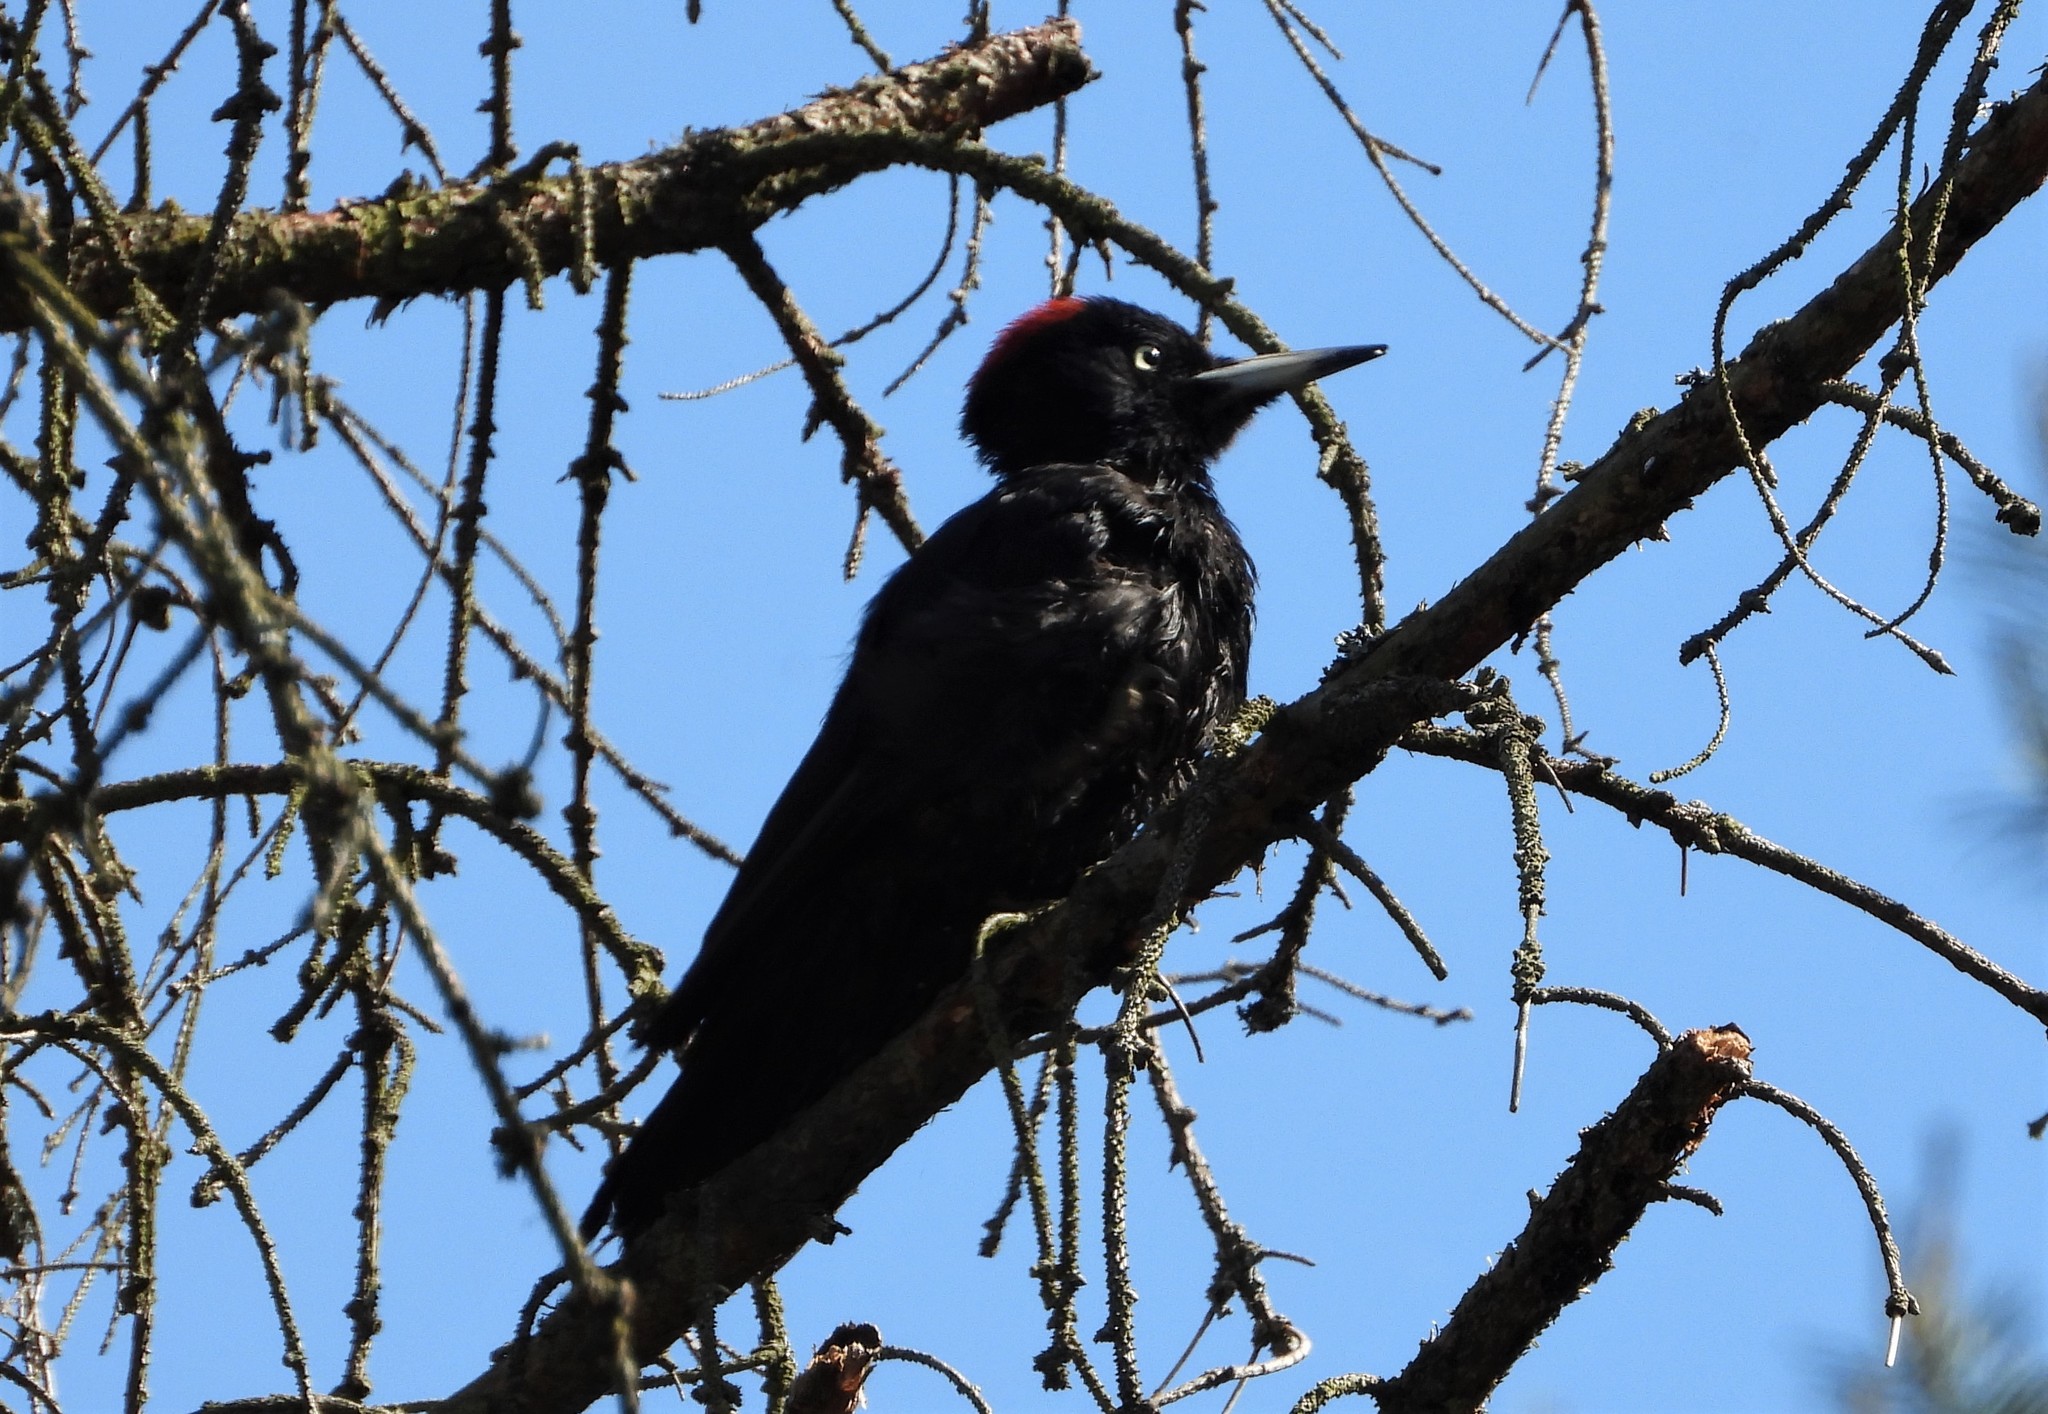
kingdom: Animalia
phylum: Chordata
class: Aves
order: Piciformes
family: Picidae
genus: Dryocopus
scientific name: Dryocopus martius
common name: Black woodpecker
